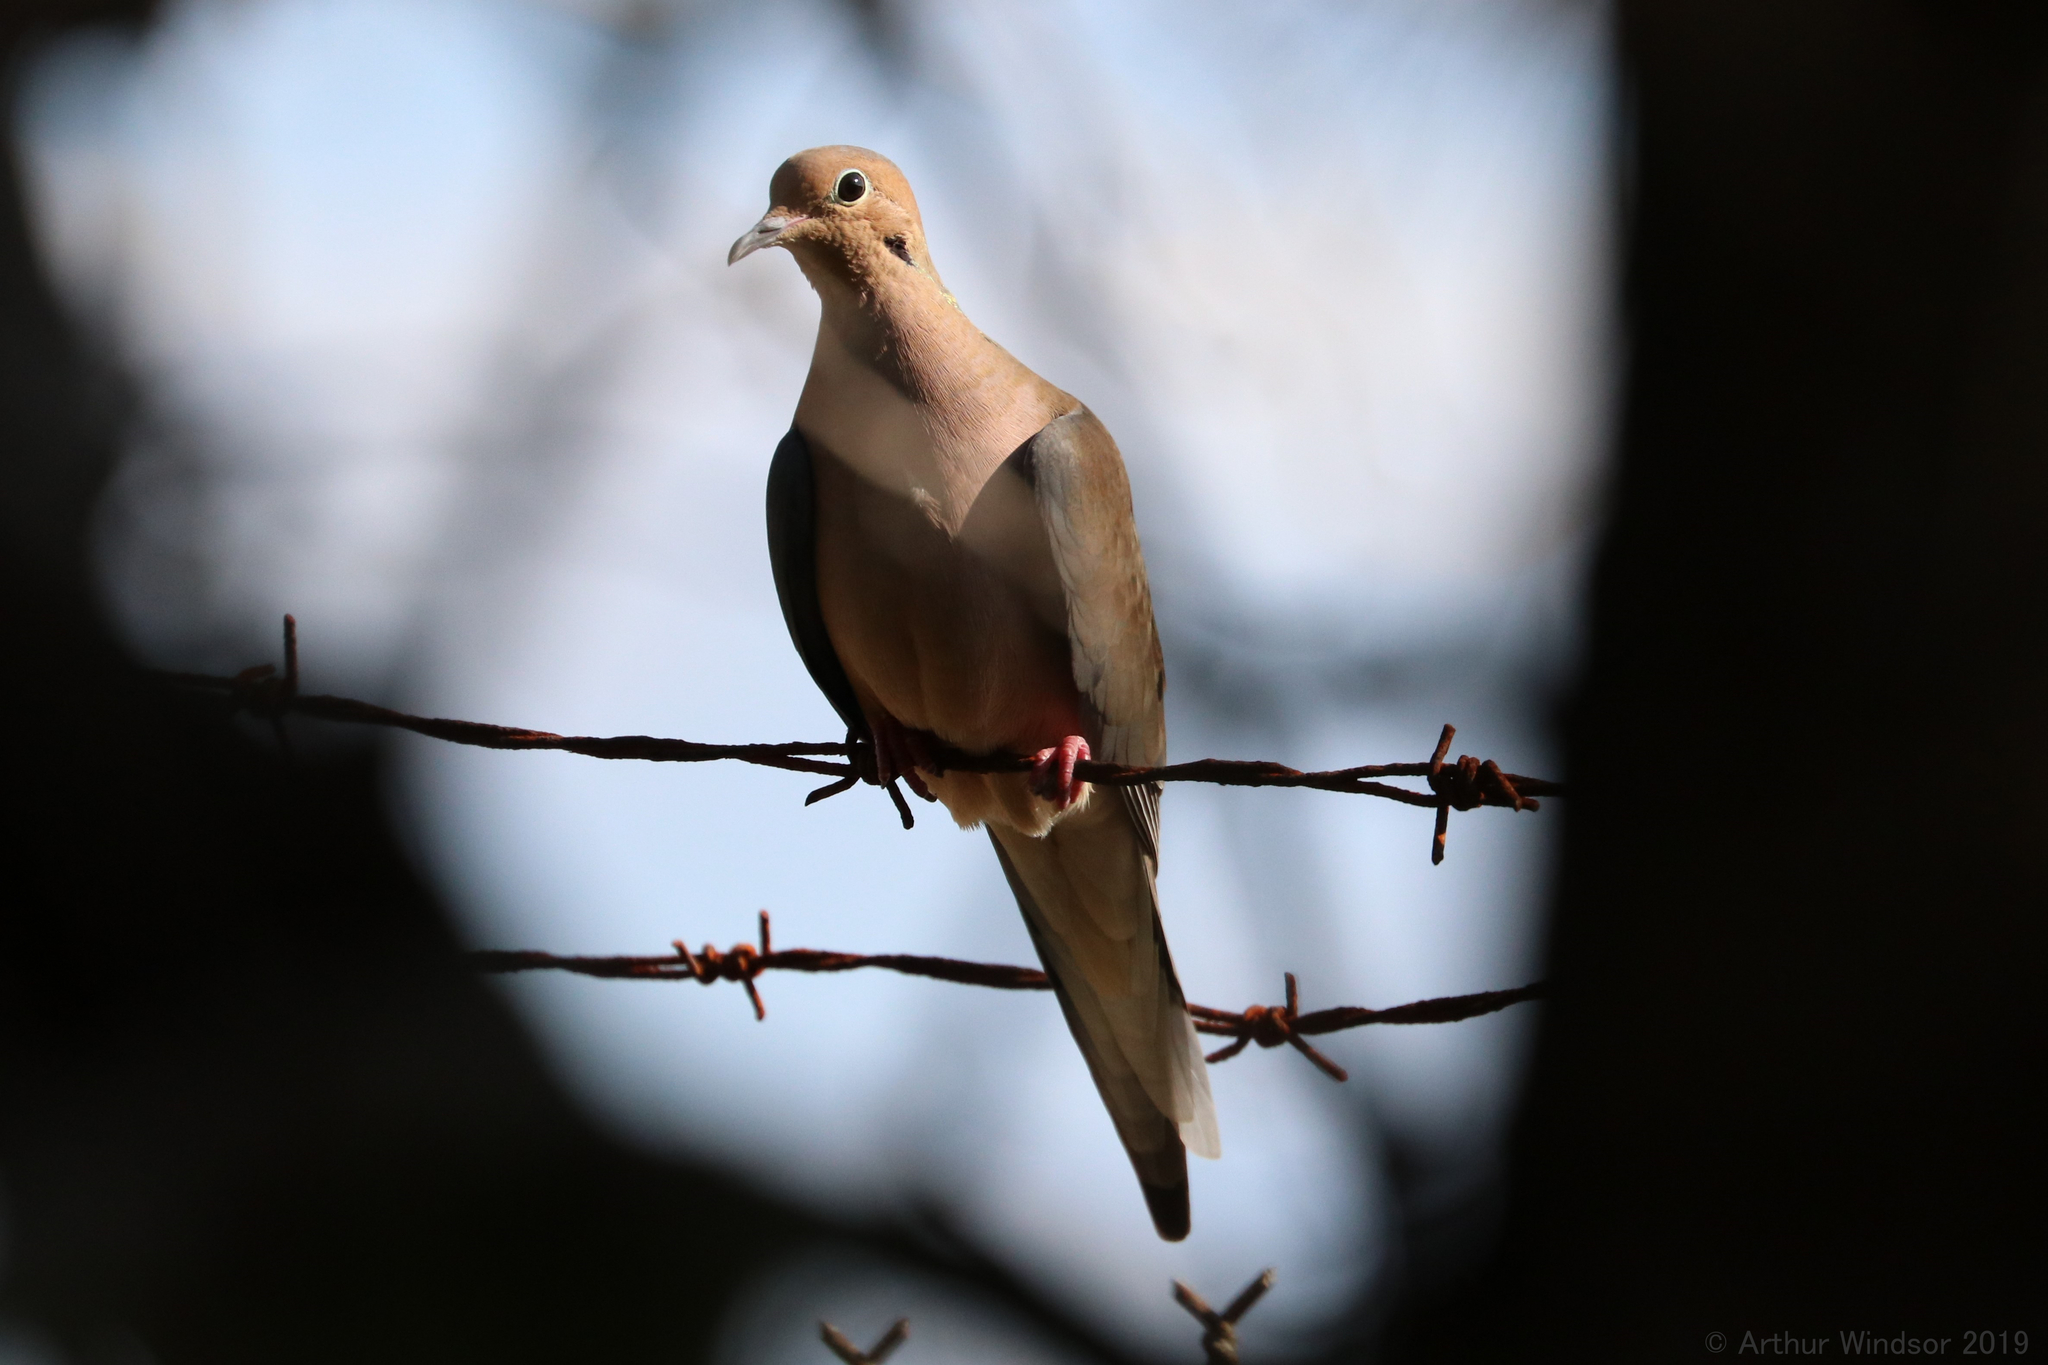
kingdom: Animalia
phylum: Chordata
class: Aves
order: Columbiformes
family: Columbidae
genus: Zenaida
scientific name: Zenaida macroura
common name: Mourning dove
